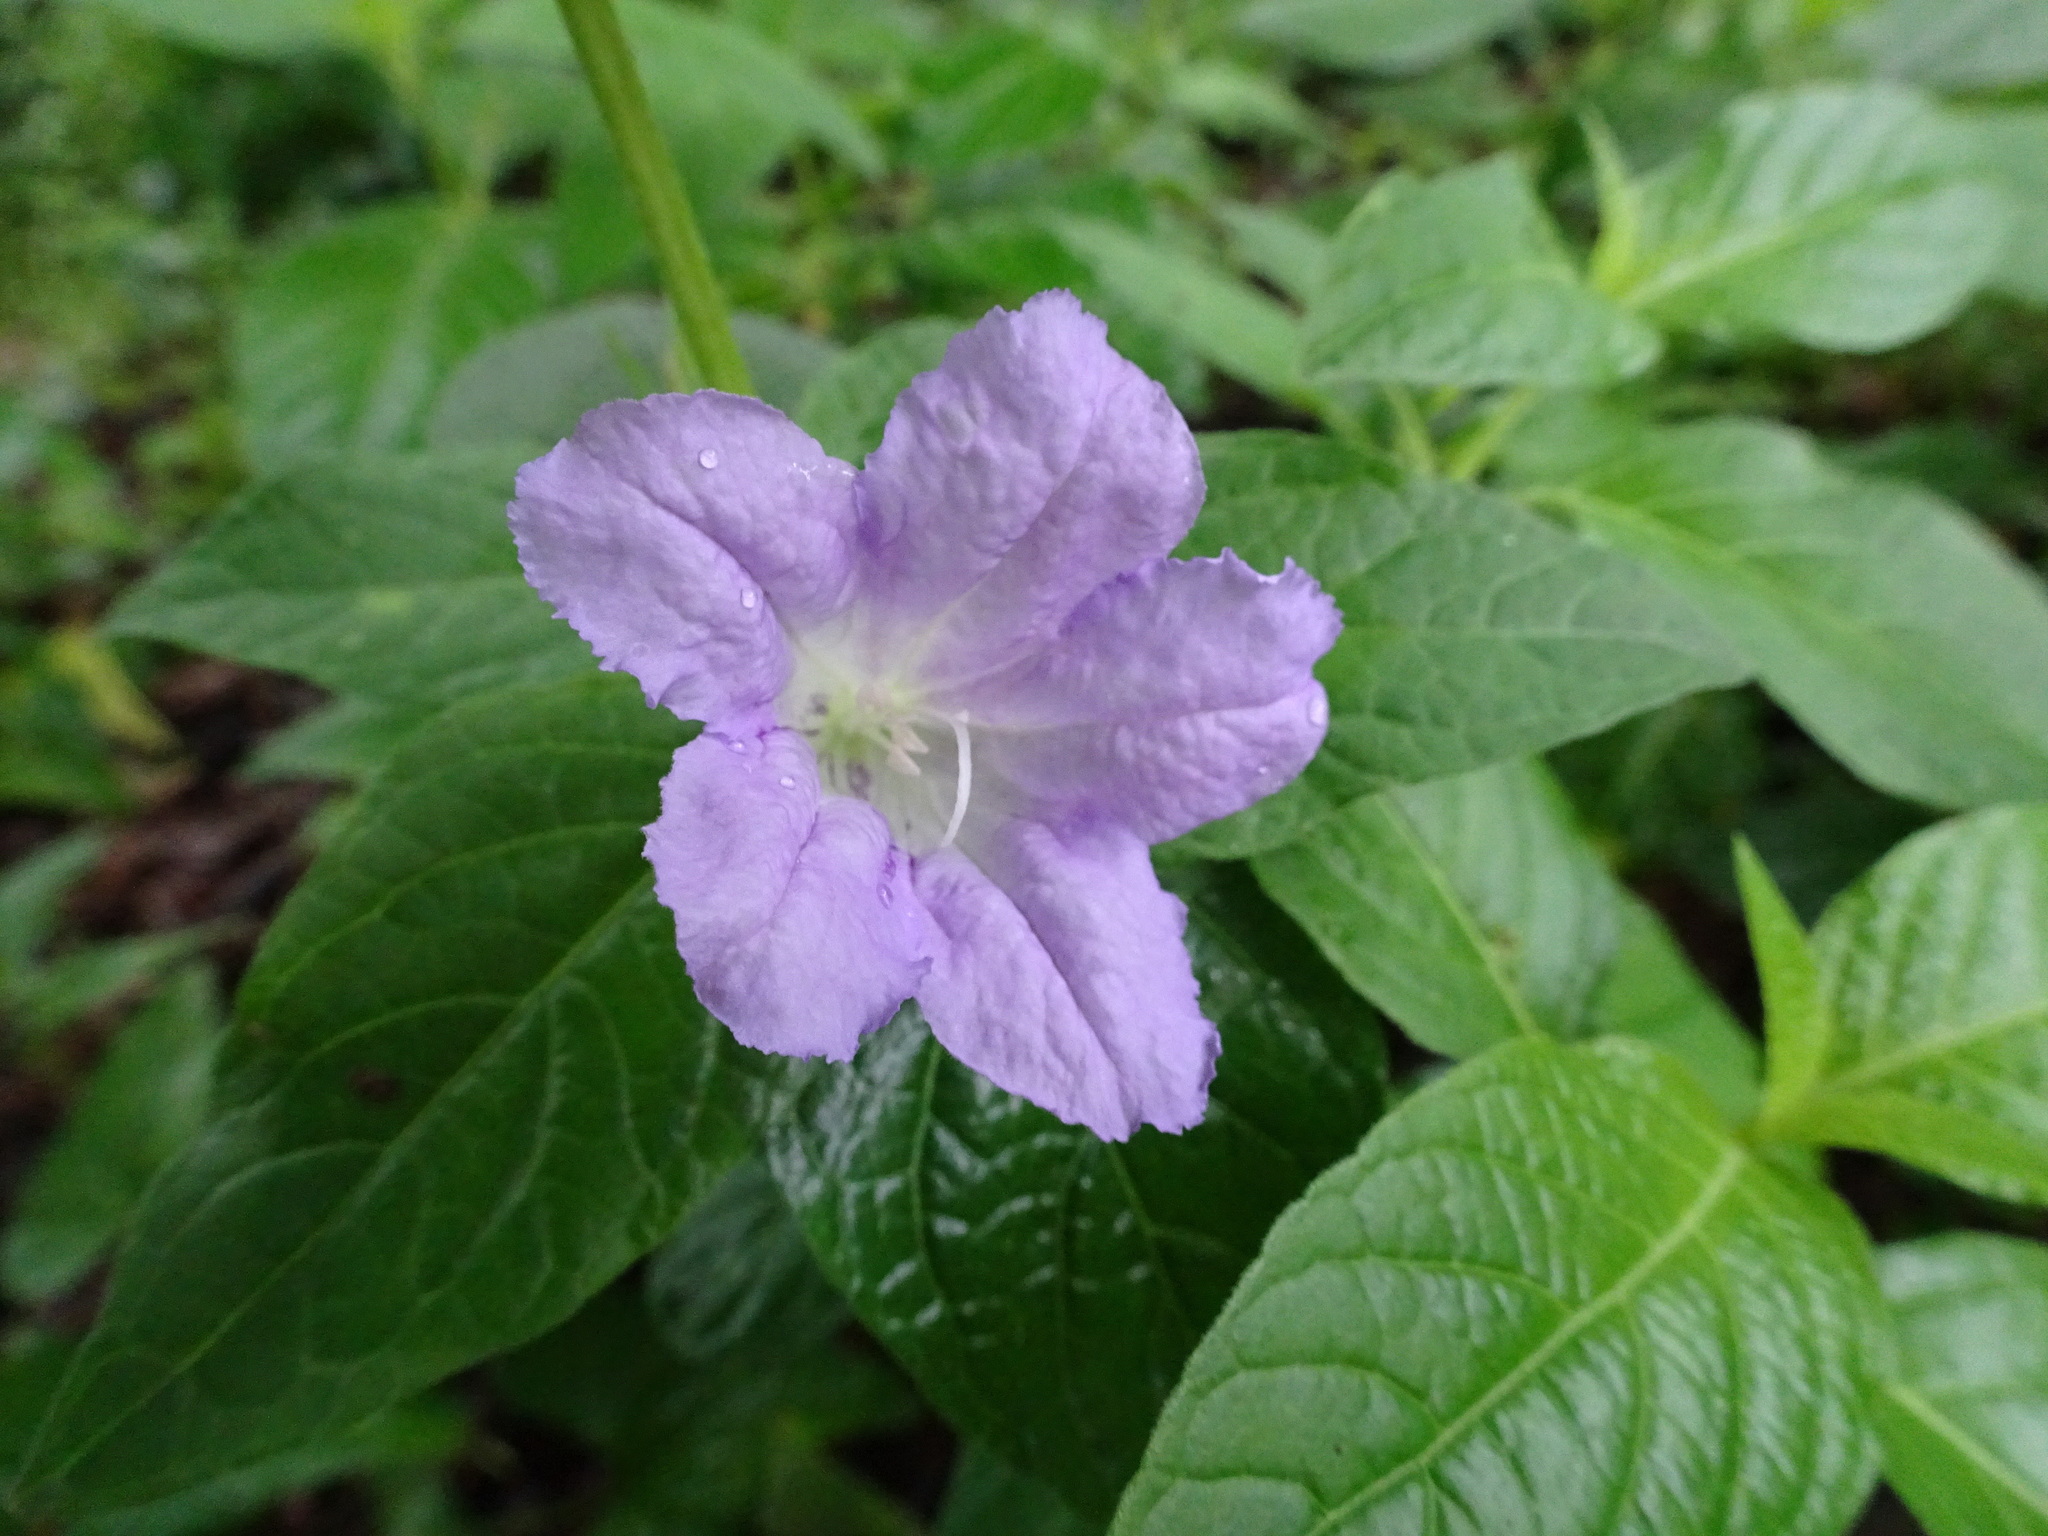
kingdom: Plantae
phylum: Tracheophyta
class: Magnoliopsida
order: Lamiales
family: Acanthaceae
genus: Ruellia
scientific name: Ruellia strepens
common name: Limestone wild petunia
